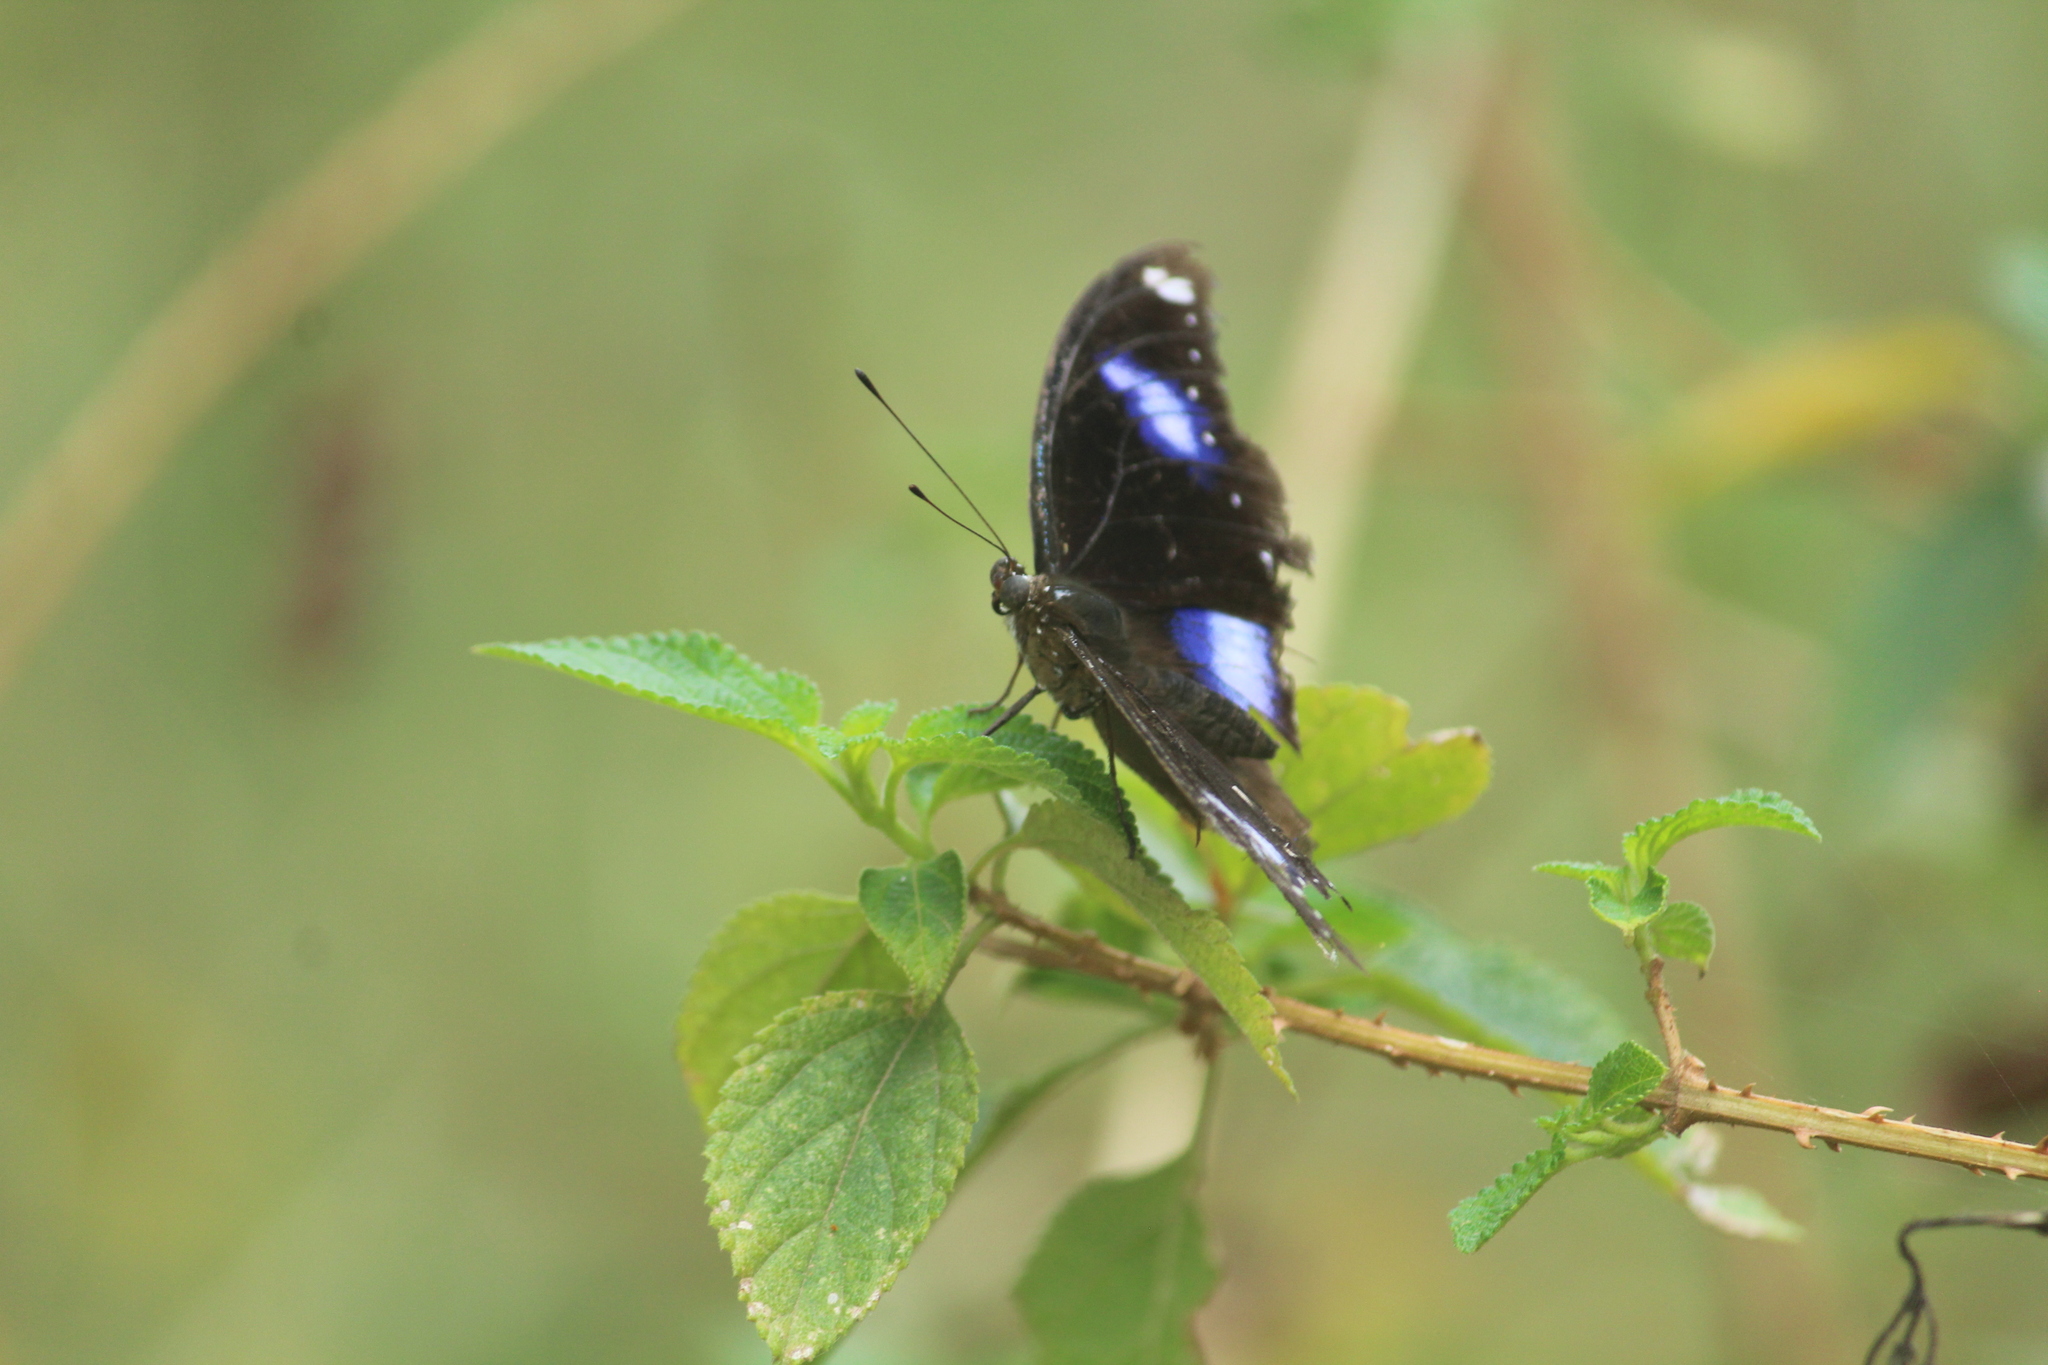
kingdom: Animalia
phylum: Arthropoda
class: Insecta
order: Lepidoptera
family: Nymphalidae
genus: Hypolimnas
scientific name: Hypolimnas bolina
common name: Great eggfly
